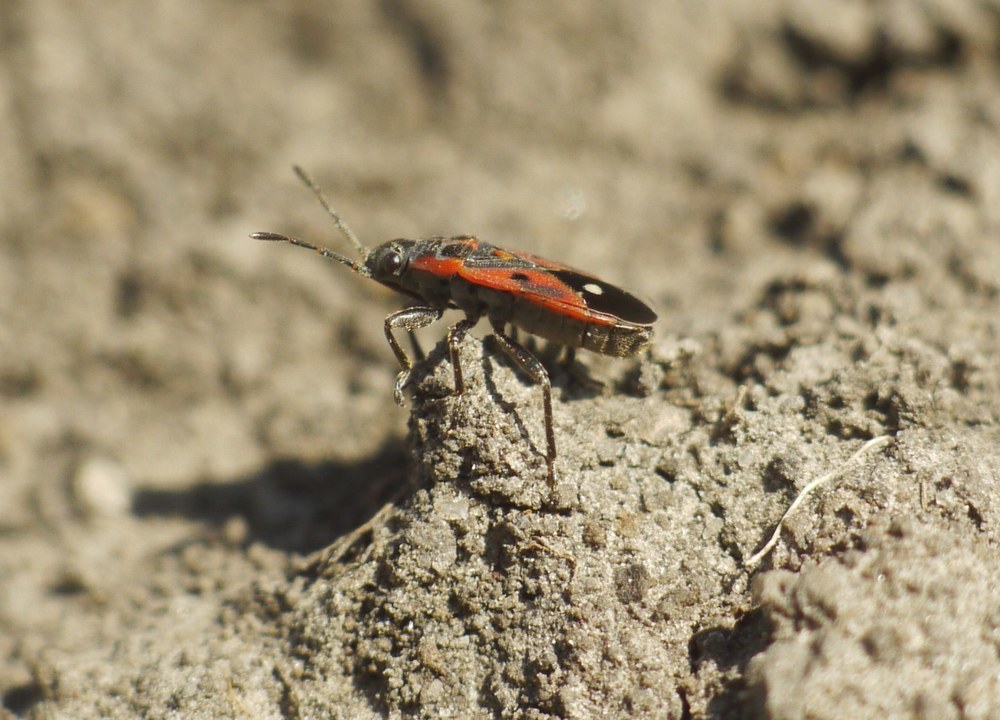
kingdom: Animalia
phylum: Arthropoda
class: Insecta
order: Hemiptera
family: Lygaeidae
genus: Melanocoryphus
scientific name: Melanocoryphus tristrami
